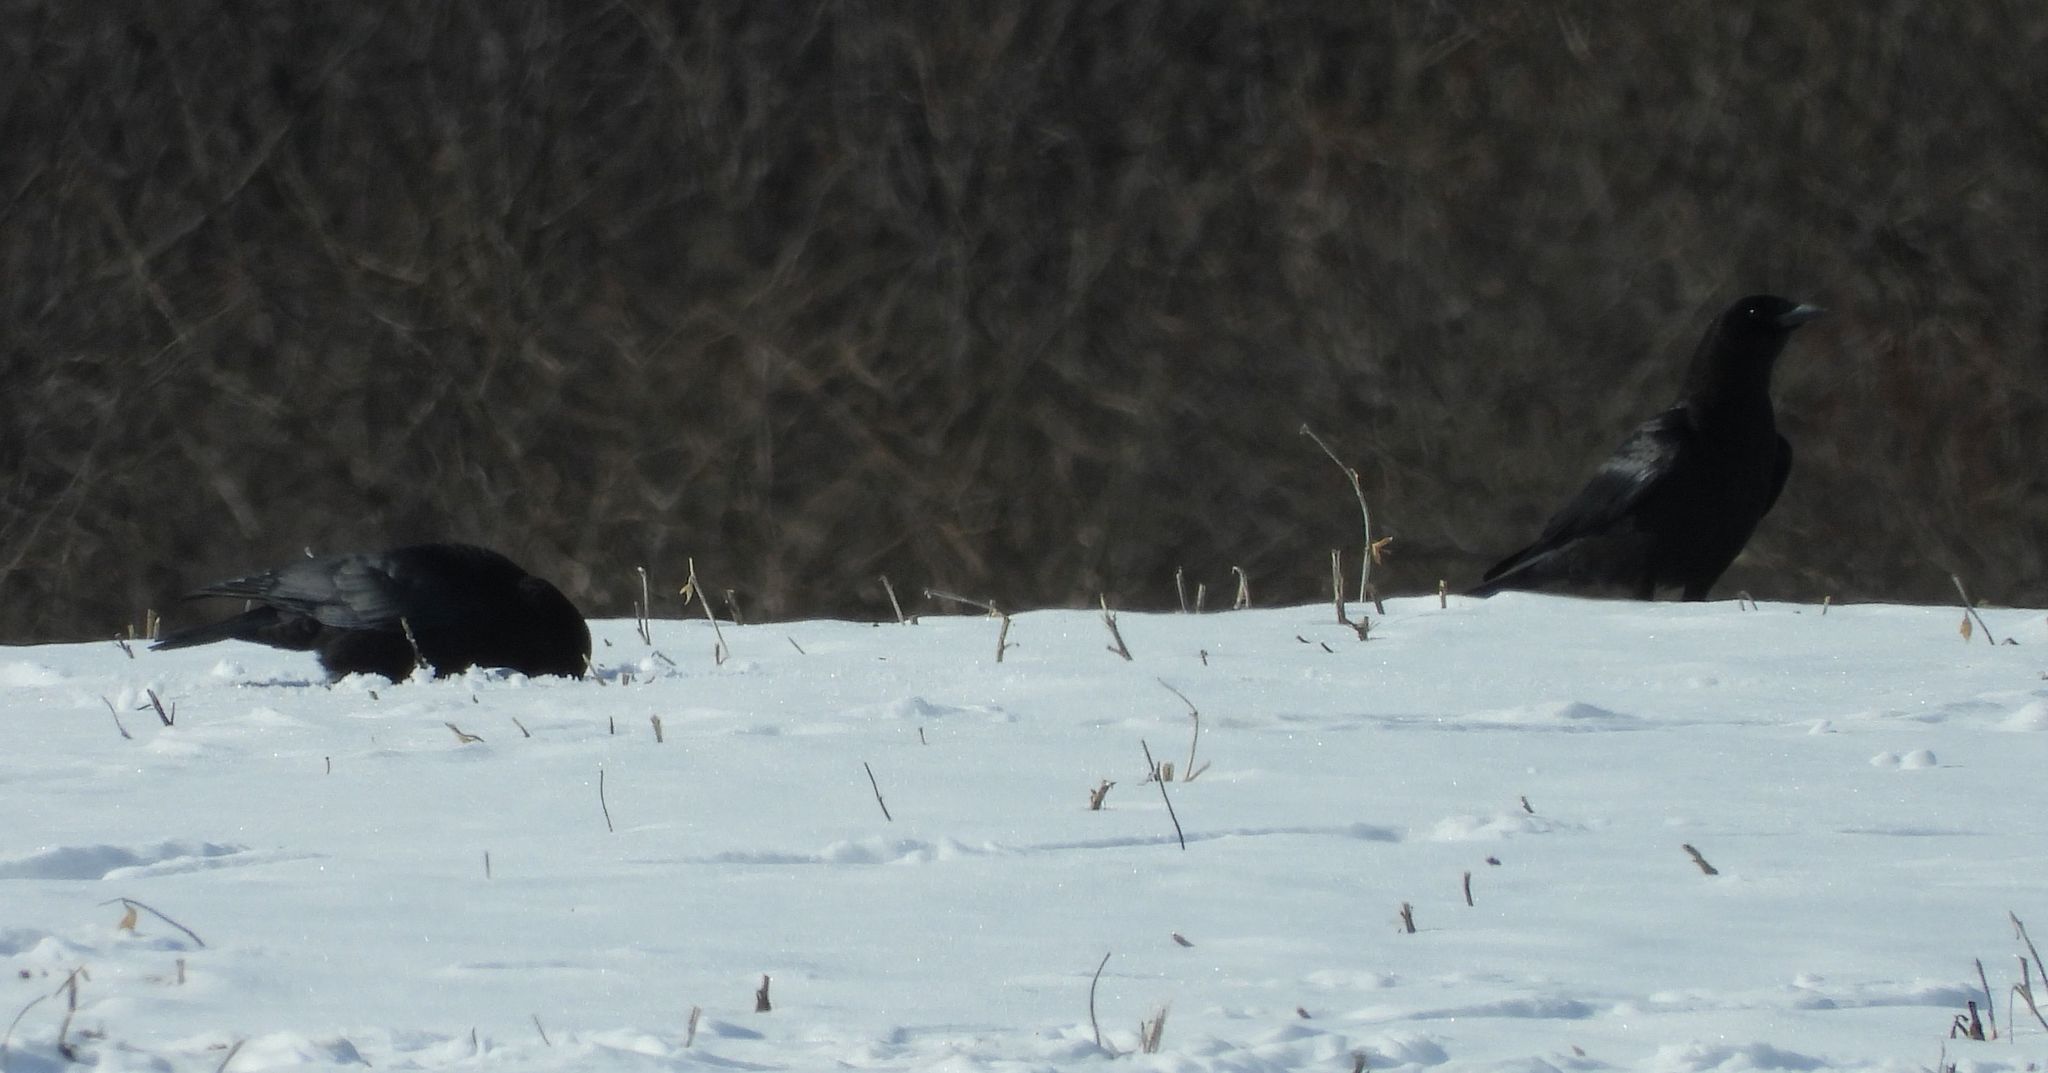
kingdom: Animalia
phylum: Chordata
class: Aves
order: Passeriformes
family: Corvidae
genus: Corvus
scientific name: Corvus brachyrhynchos
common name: American crow
